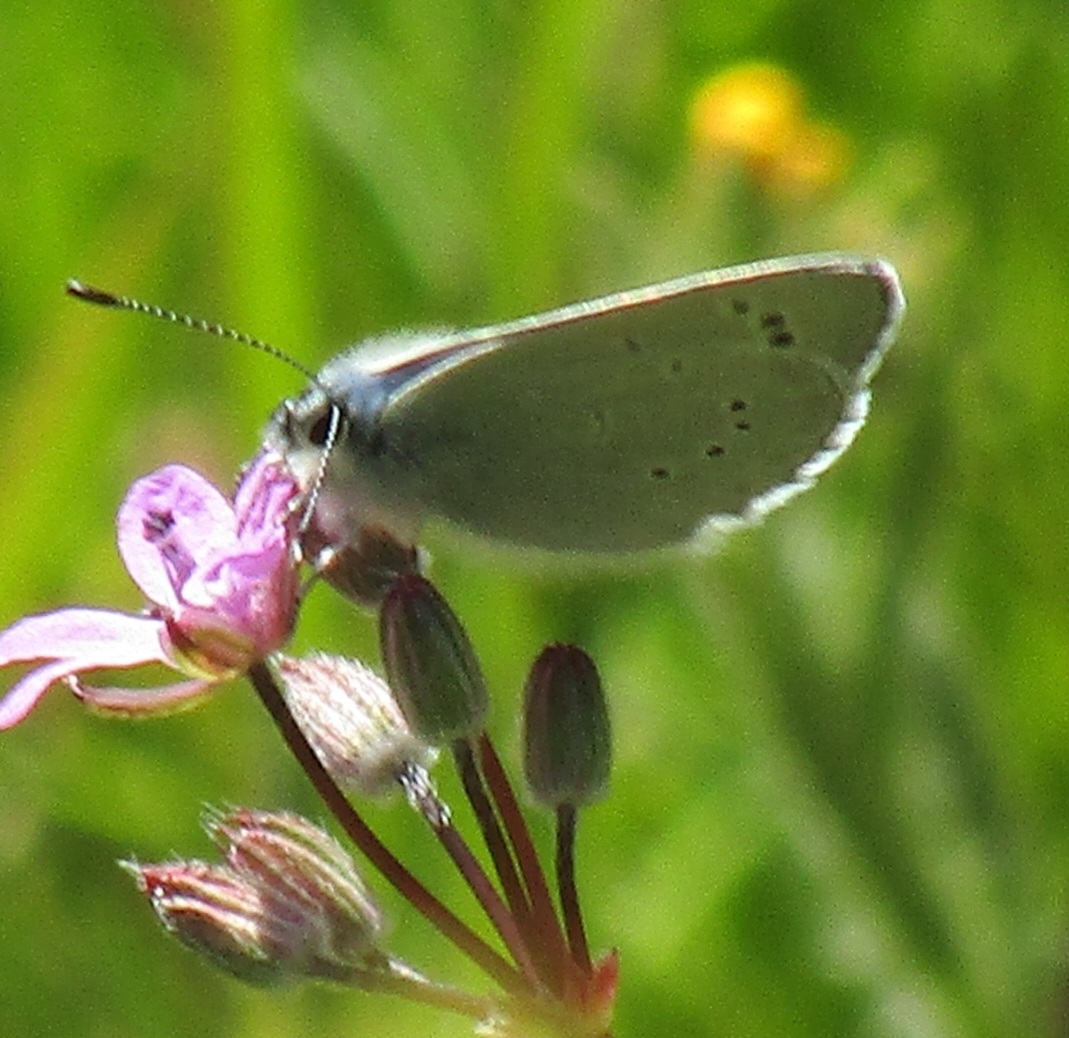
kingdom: Animalia
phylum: Arthropoda
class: Insecta
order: Lepidoptera
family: Lycaenidae
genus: Glaucopsyche
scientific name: Glaucopsyche lygdamus
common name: Silvery blue
